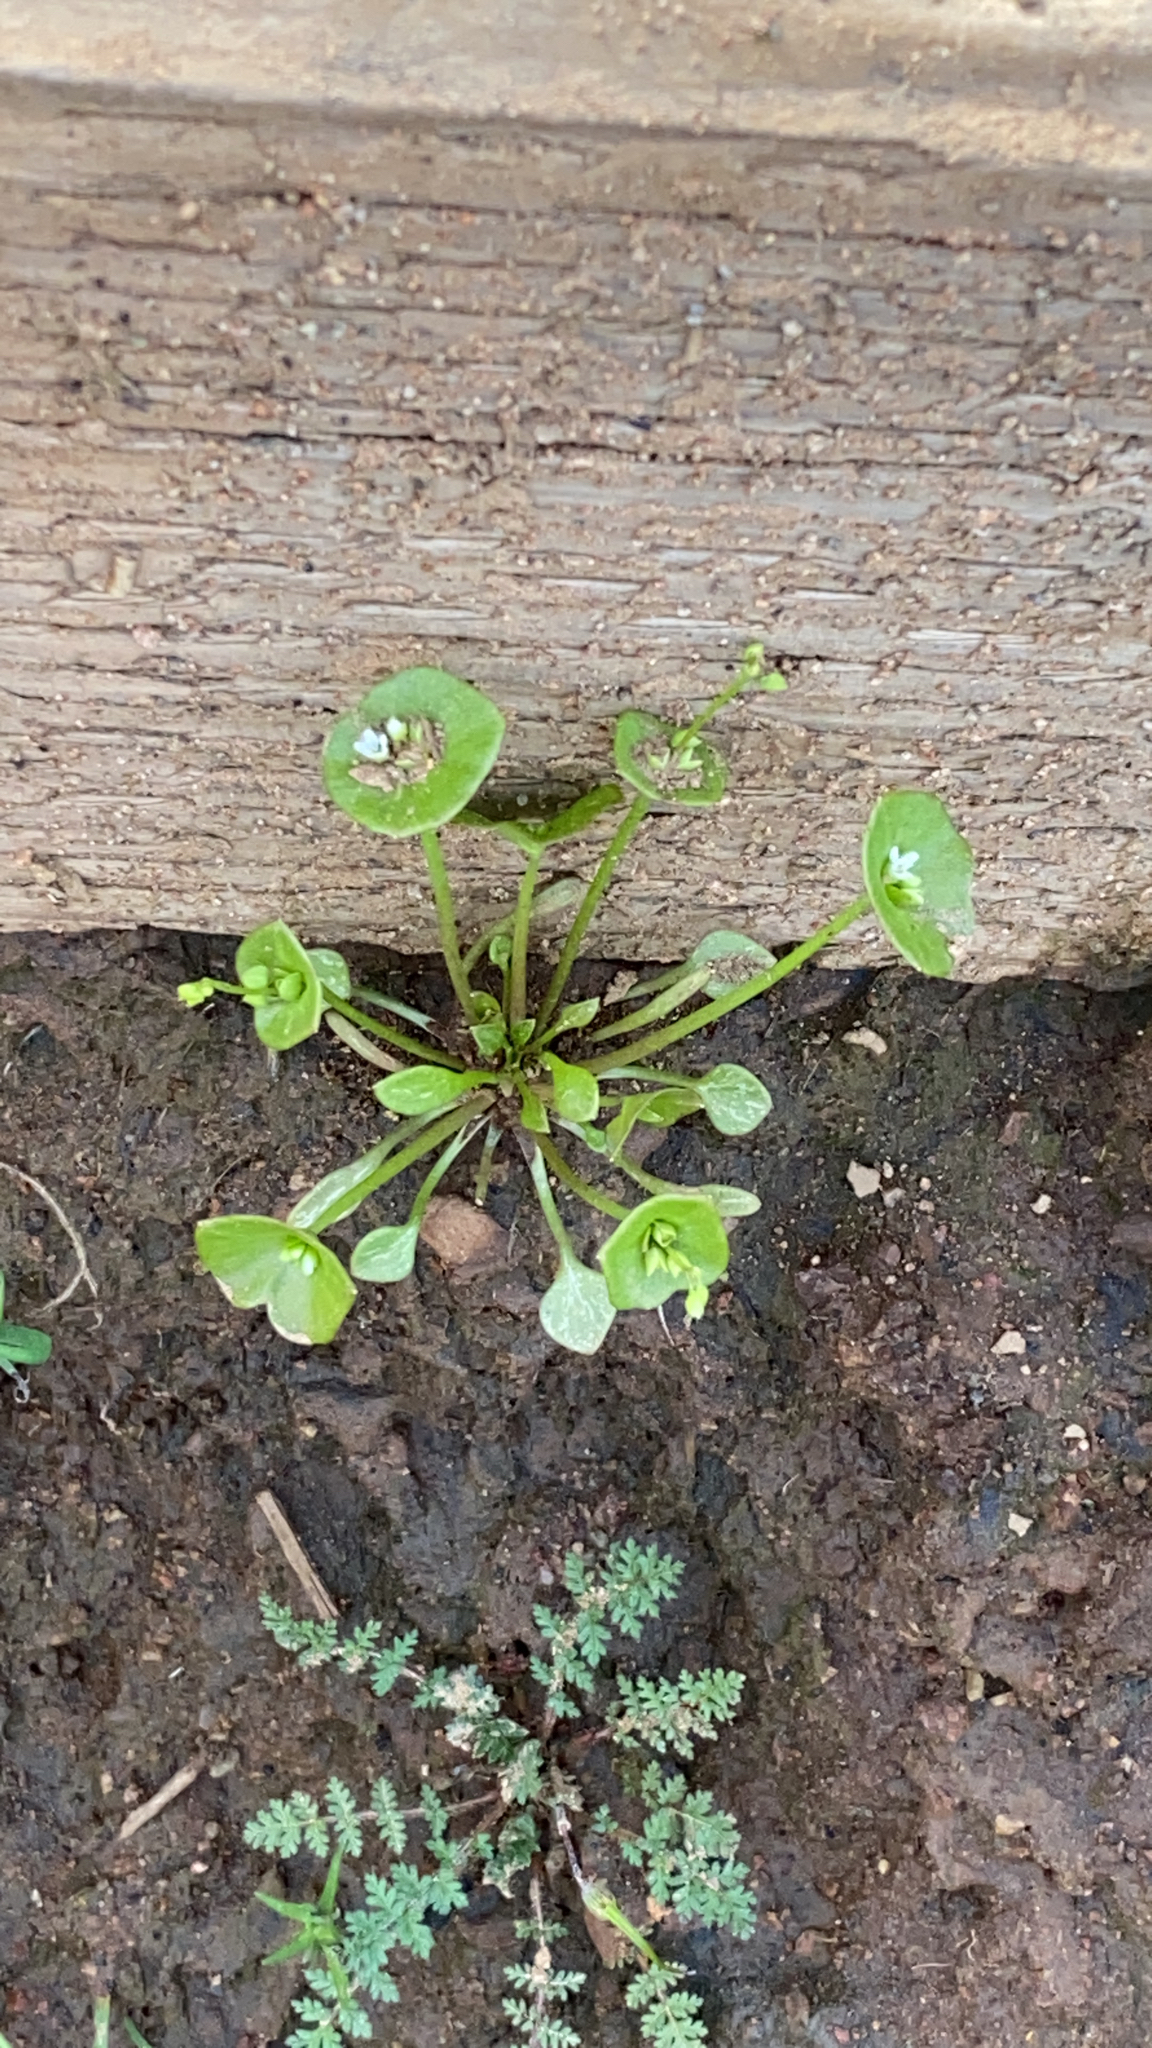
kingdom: Plantae
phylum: Tracheophyta
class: Magnoliopsida
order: Caryophyllales
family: Montiaceae
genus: Claytonia
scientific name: Claytonia perfoliata
